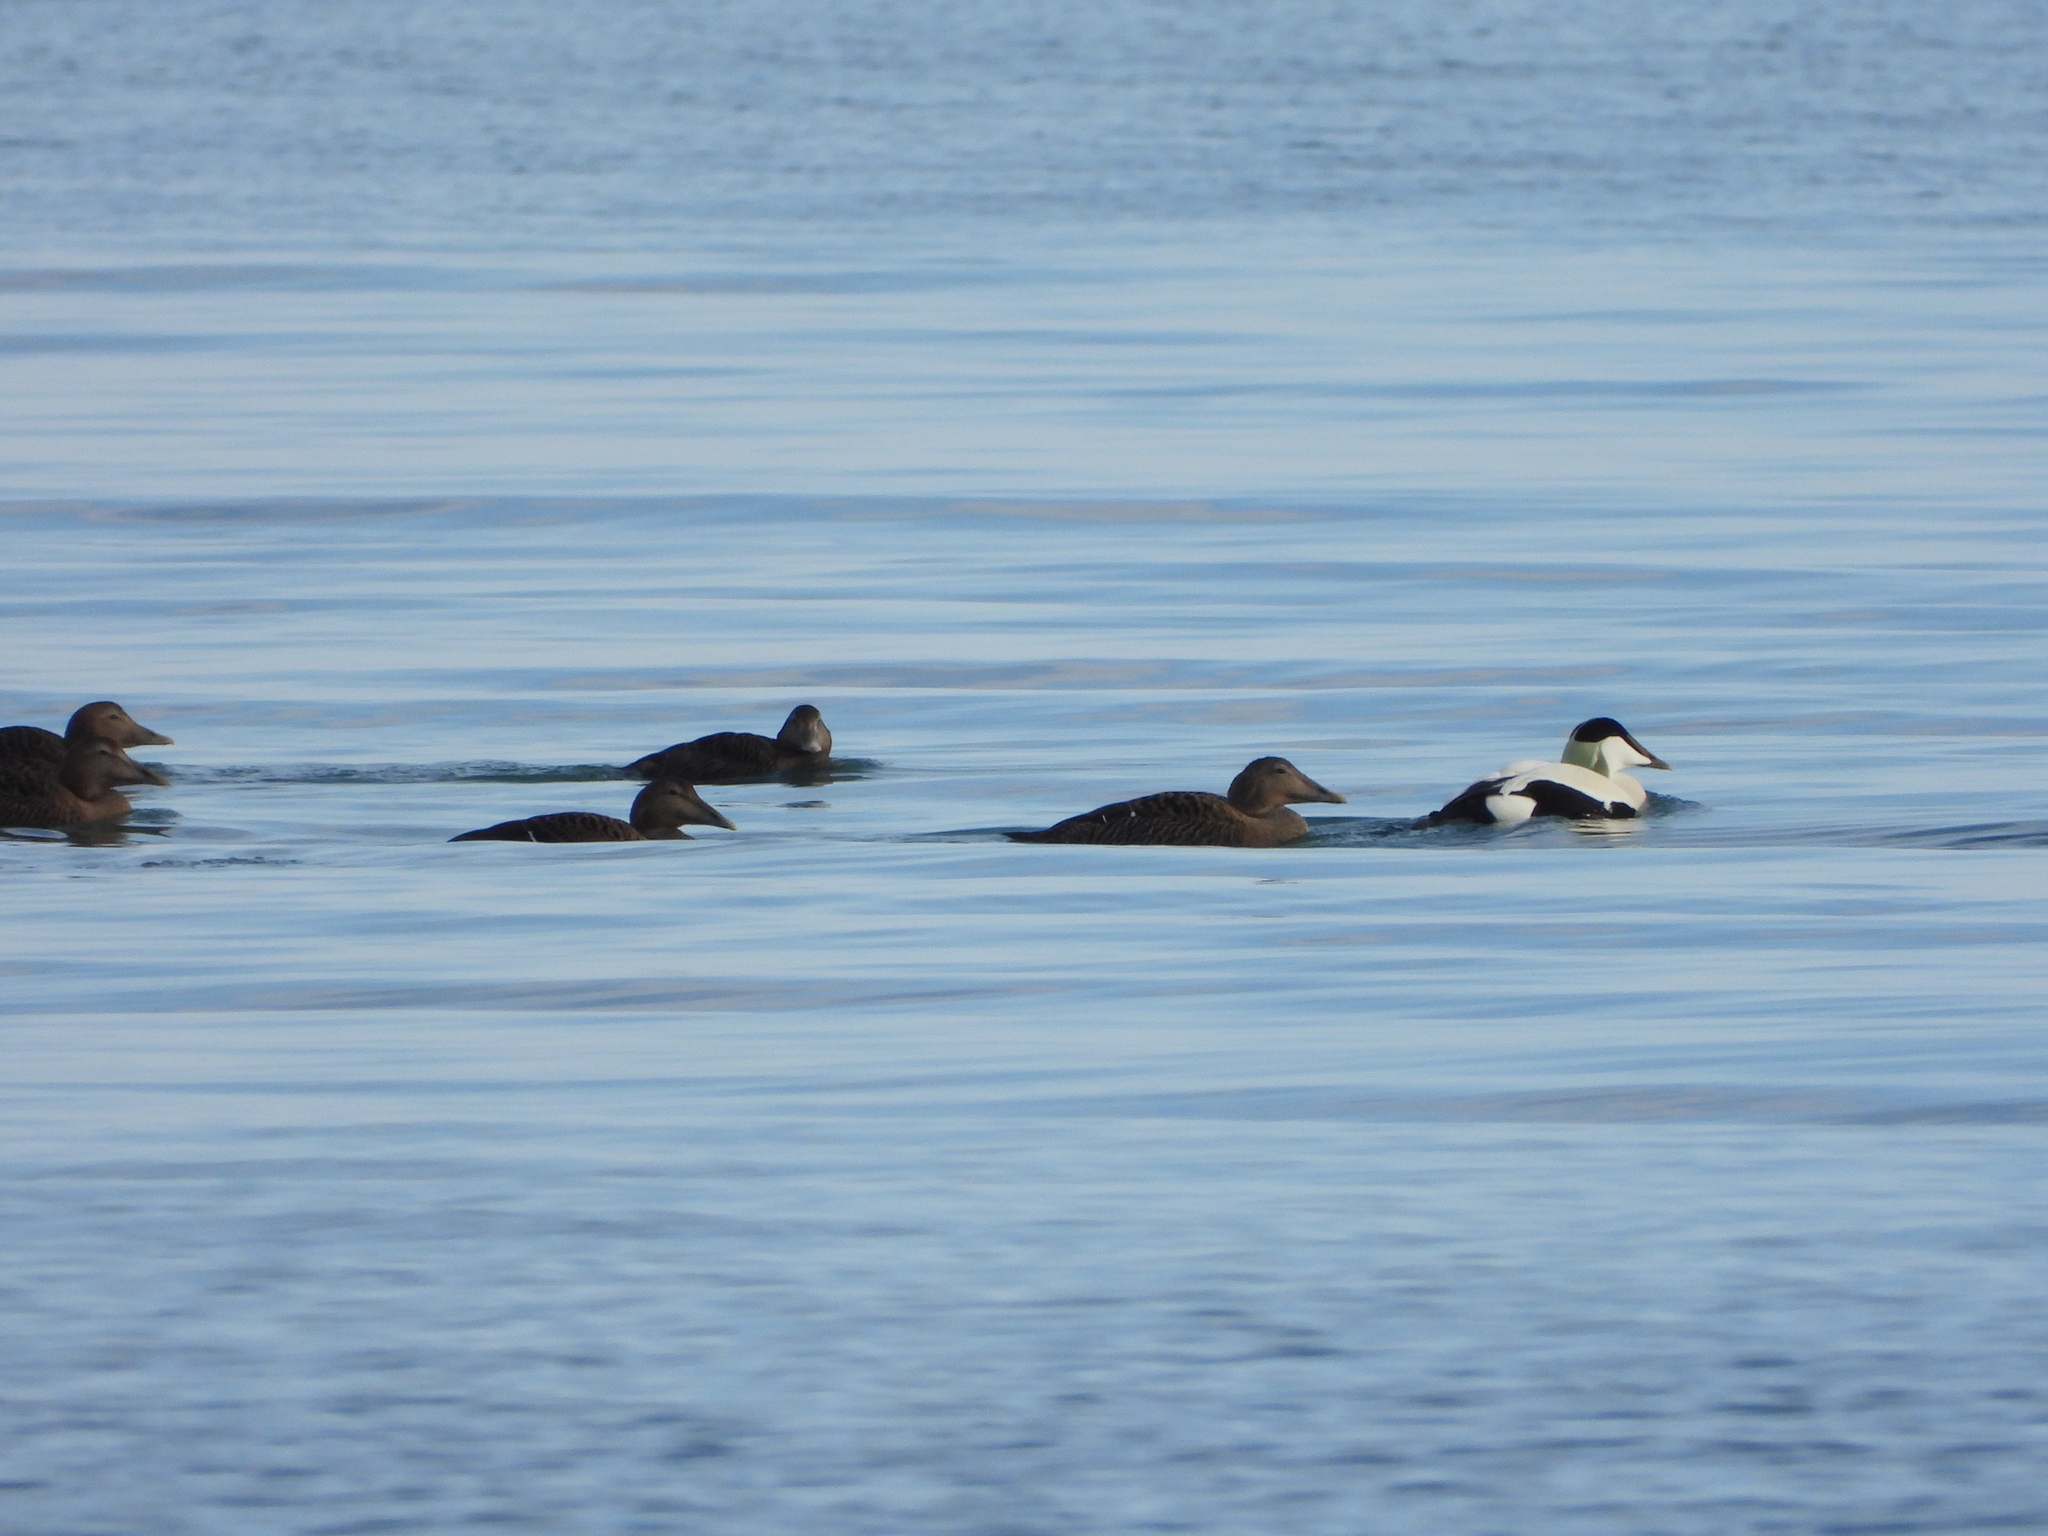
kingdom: Animalia
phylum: Chordata
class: Aves
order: Anseriformes
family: Anatidae
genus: Somateria
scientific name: Somateria mollissima
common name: Common eider
